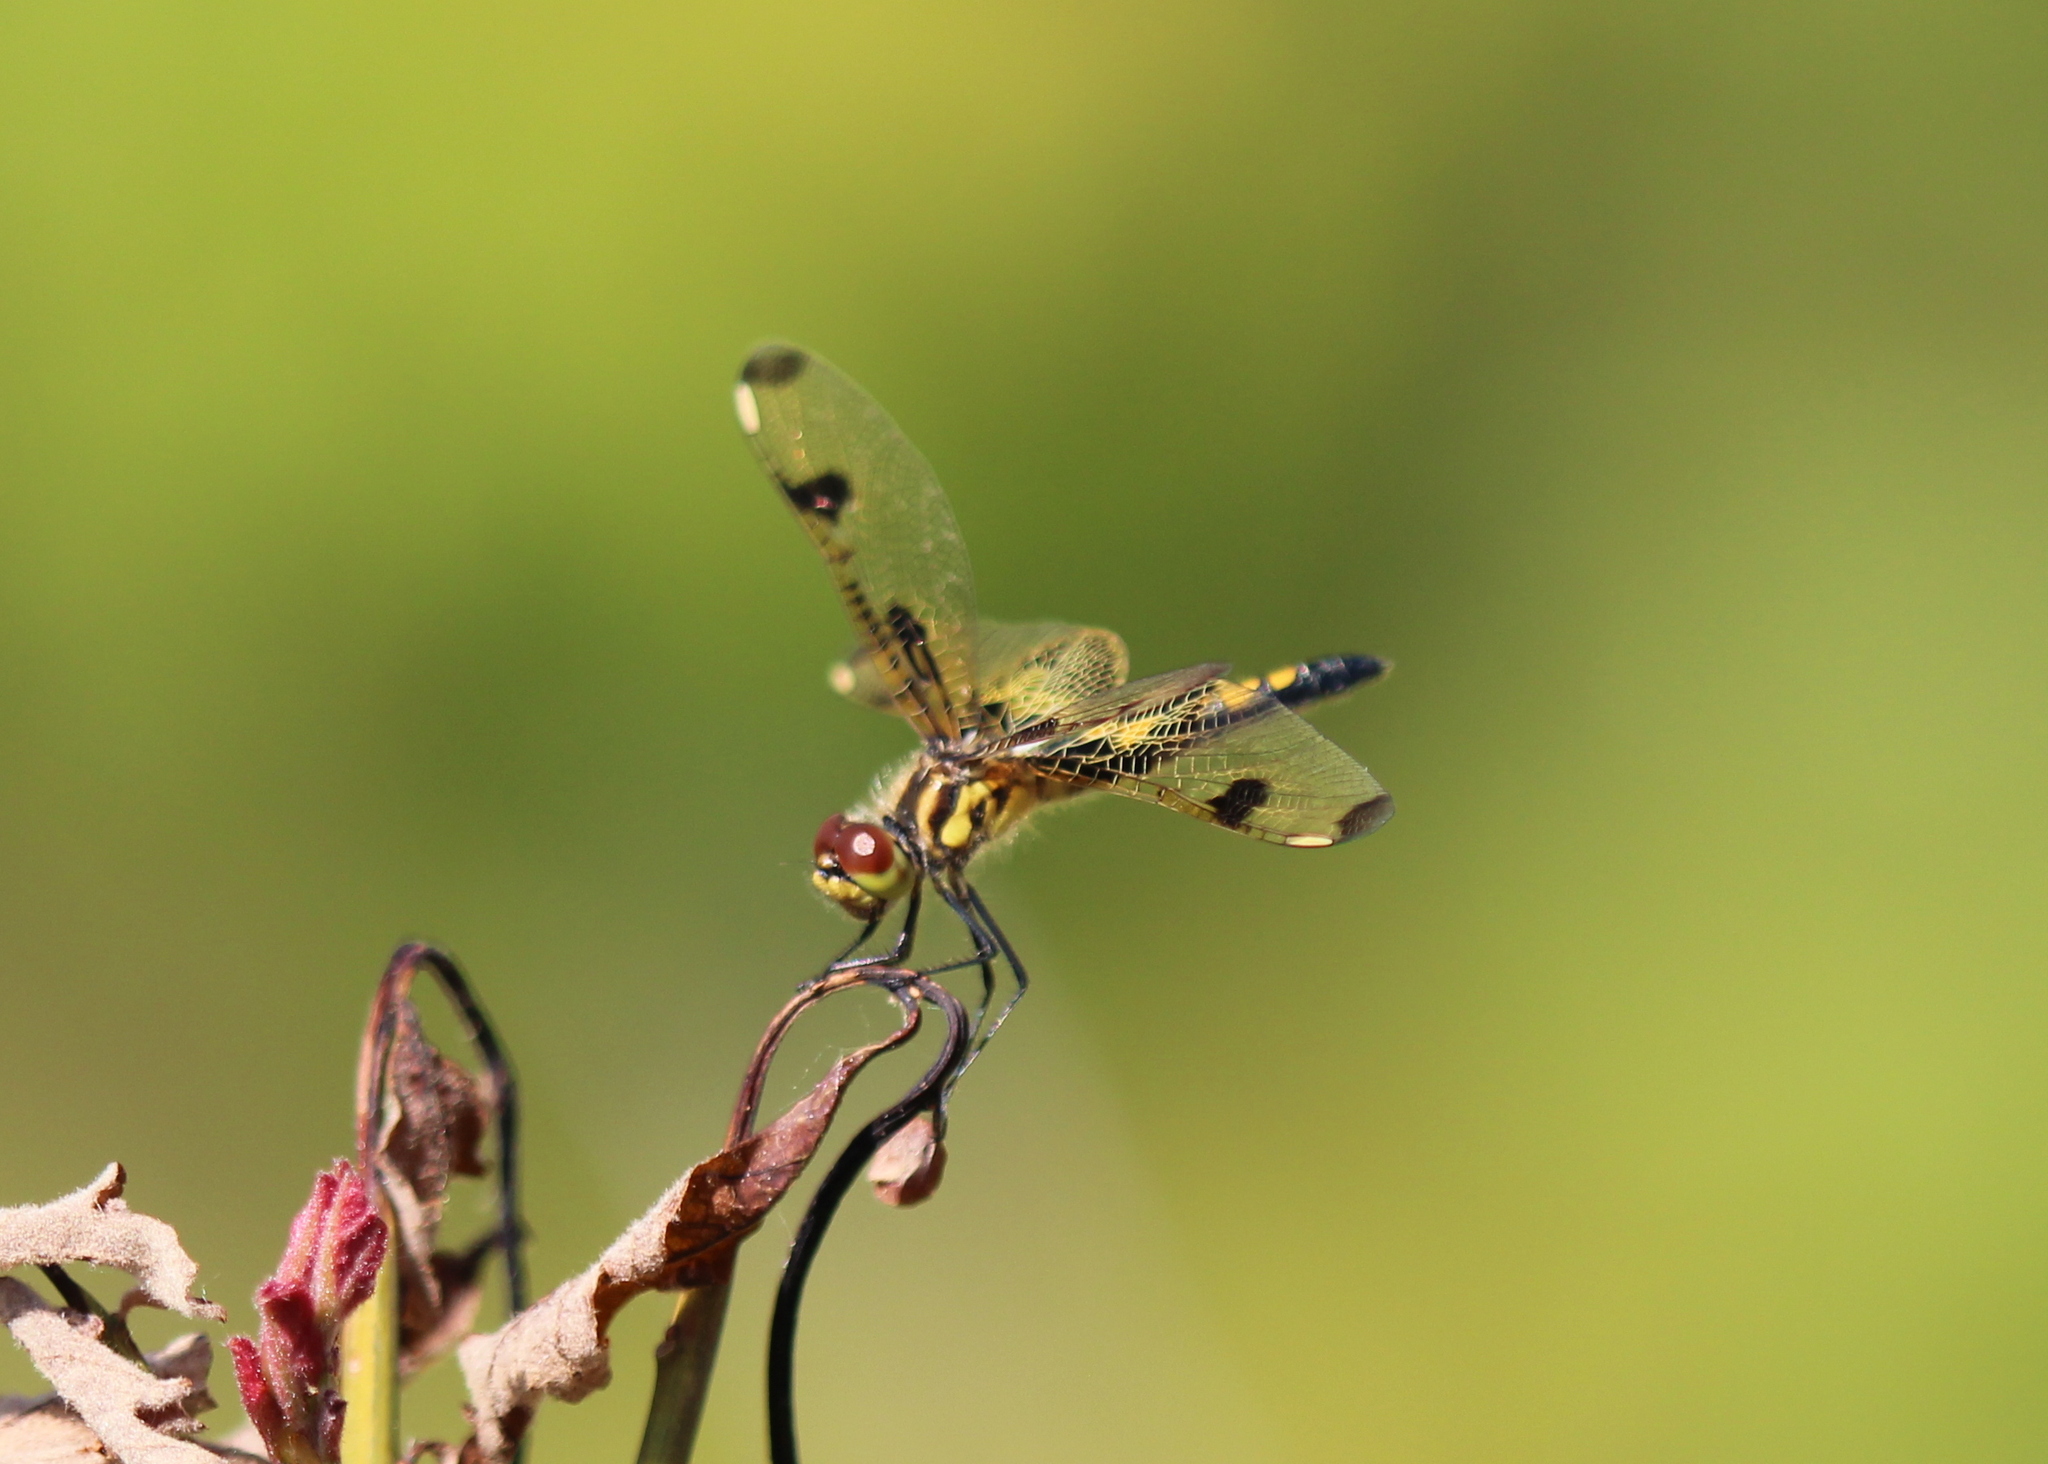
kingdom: Animalia
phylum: Arthropoda
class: Insecta
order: Odonata
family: Libellulidae
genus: Celithemis
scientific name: Celithemis elisa
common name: Calico pennant
